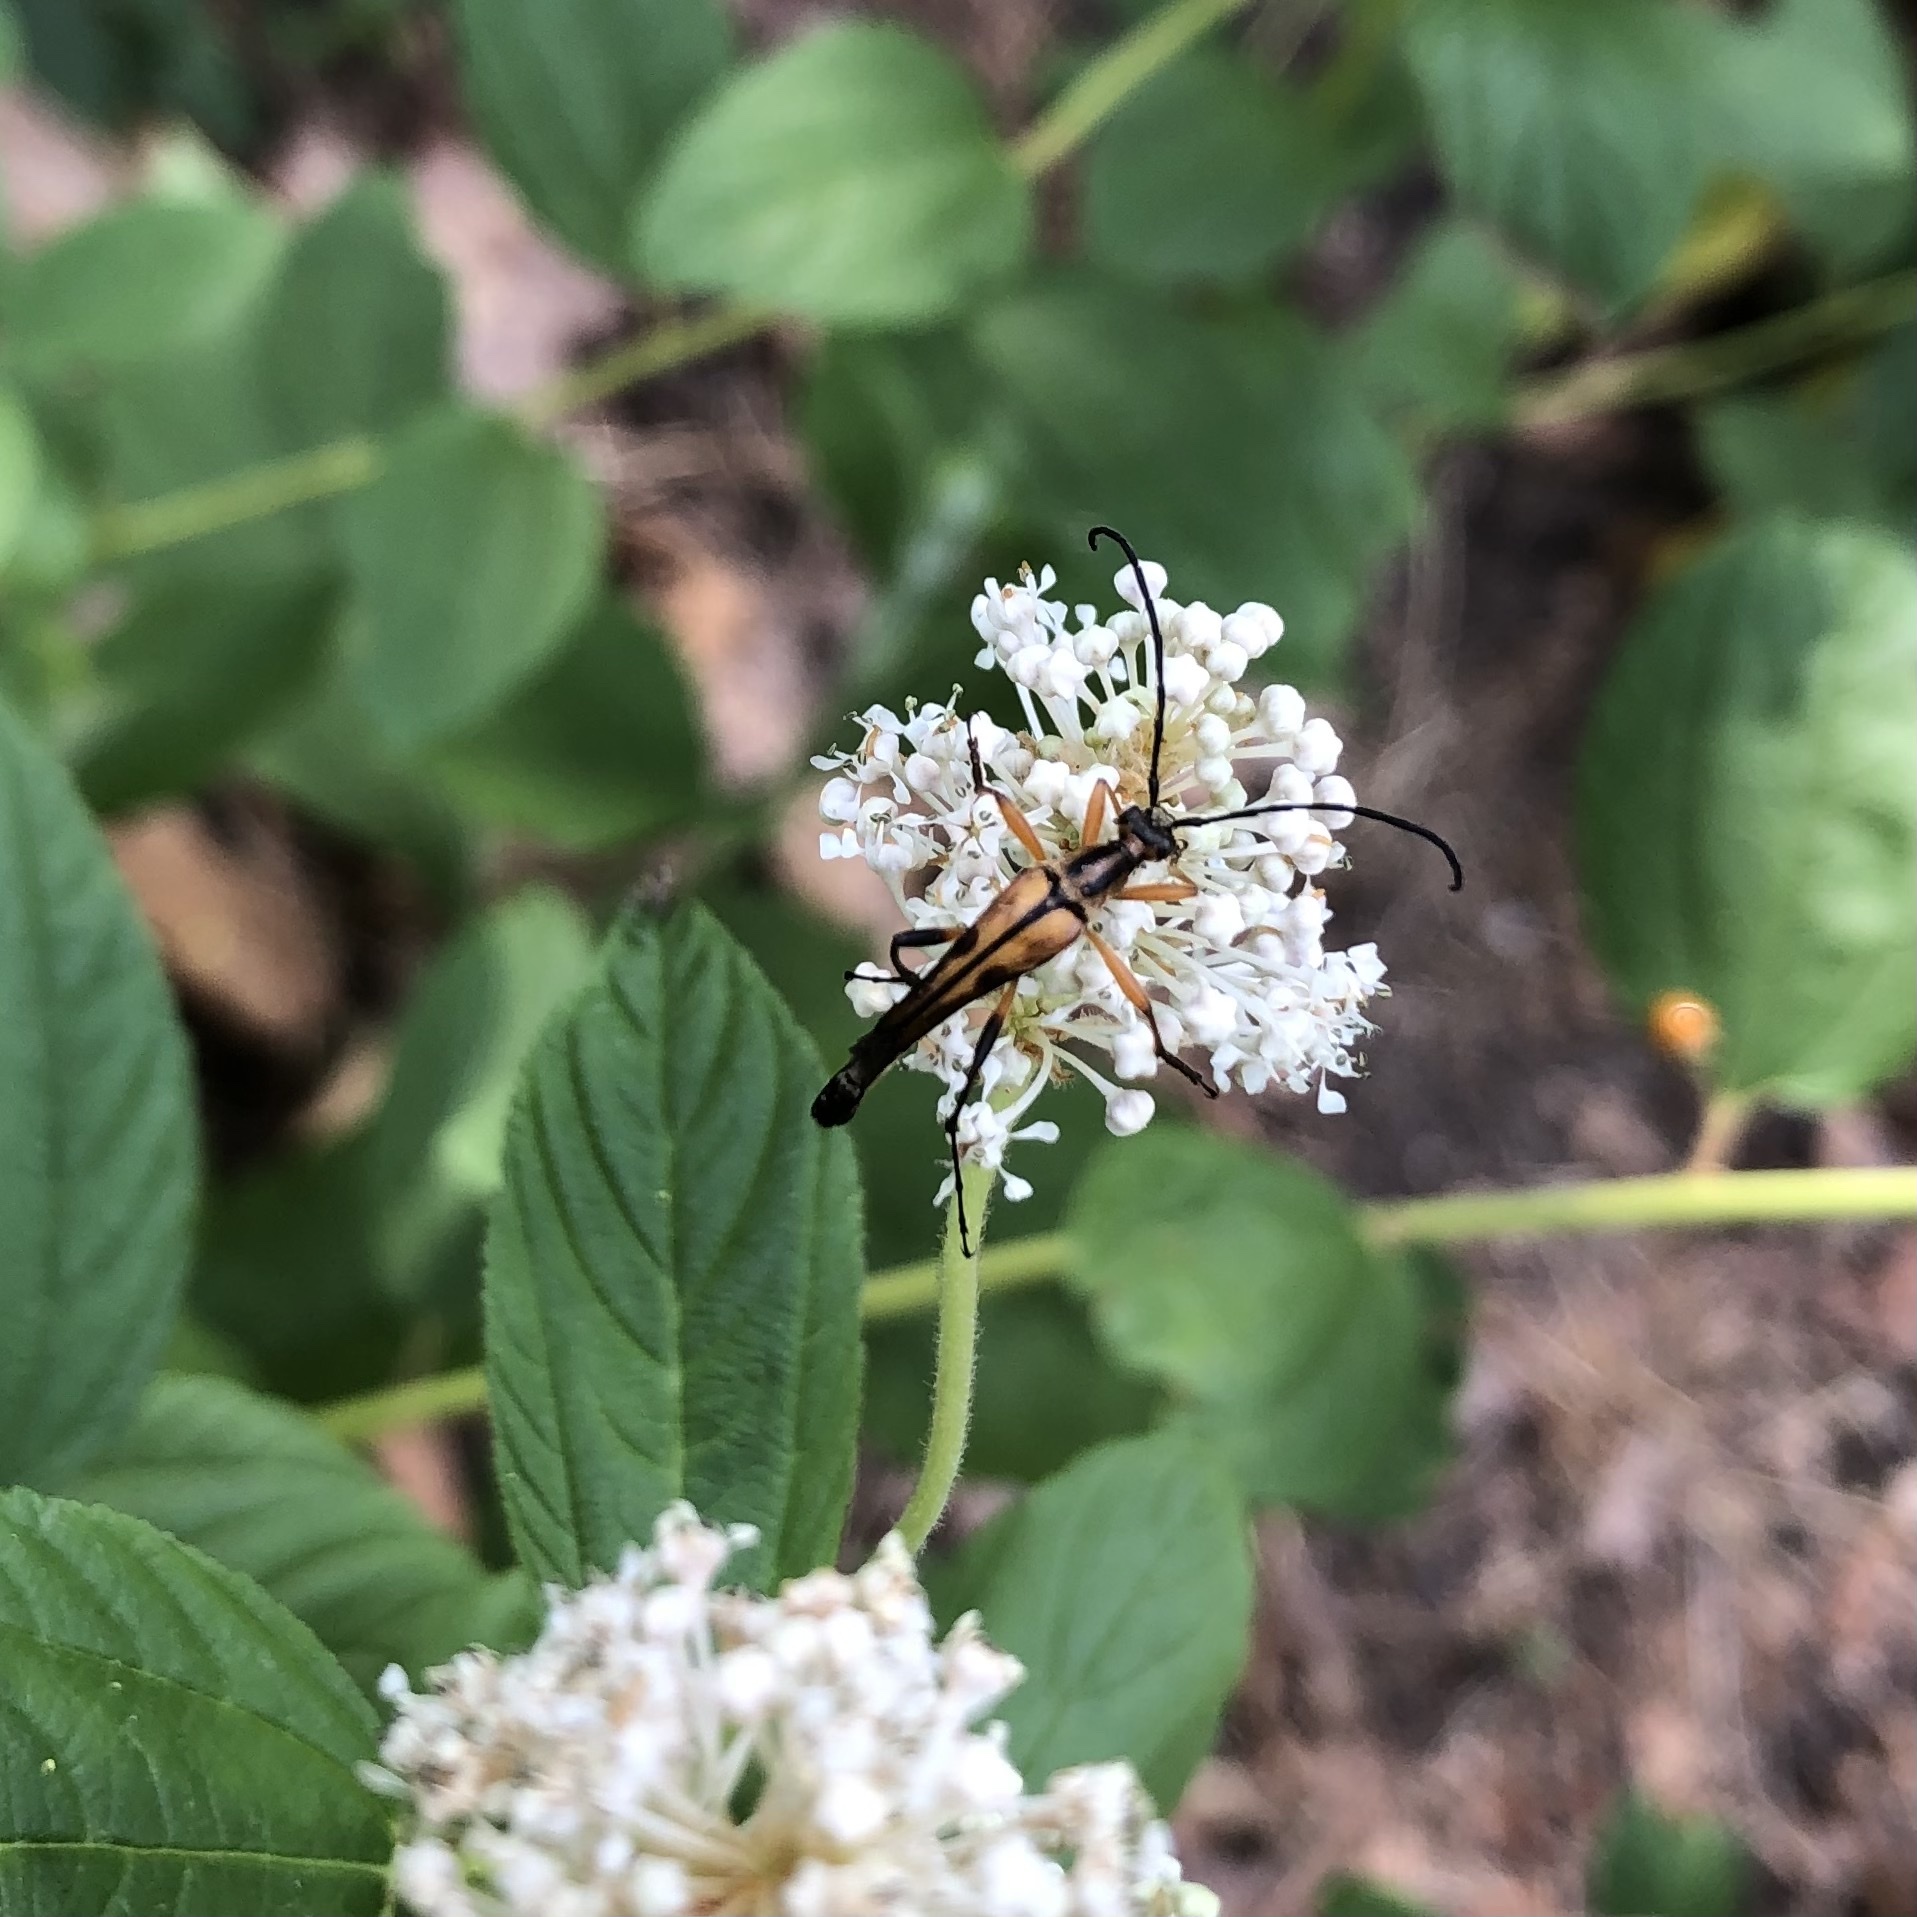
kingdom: Animalia
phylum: Arthropoda
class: Insecta
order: Coleoptera
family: Cerambycidae
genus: Strangalia
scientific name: Strangalia famelica
